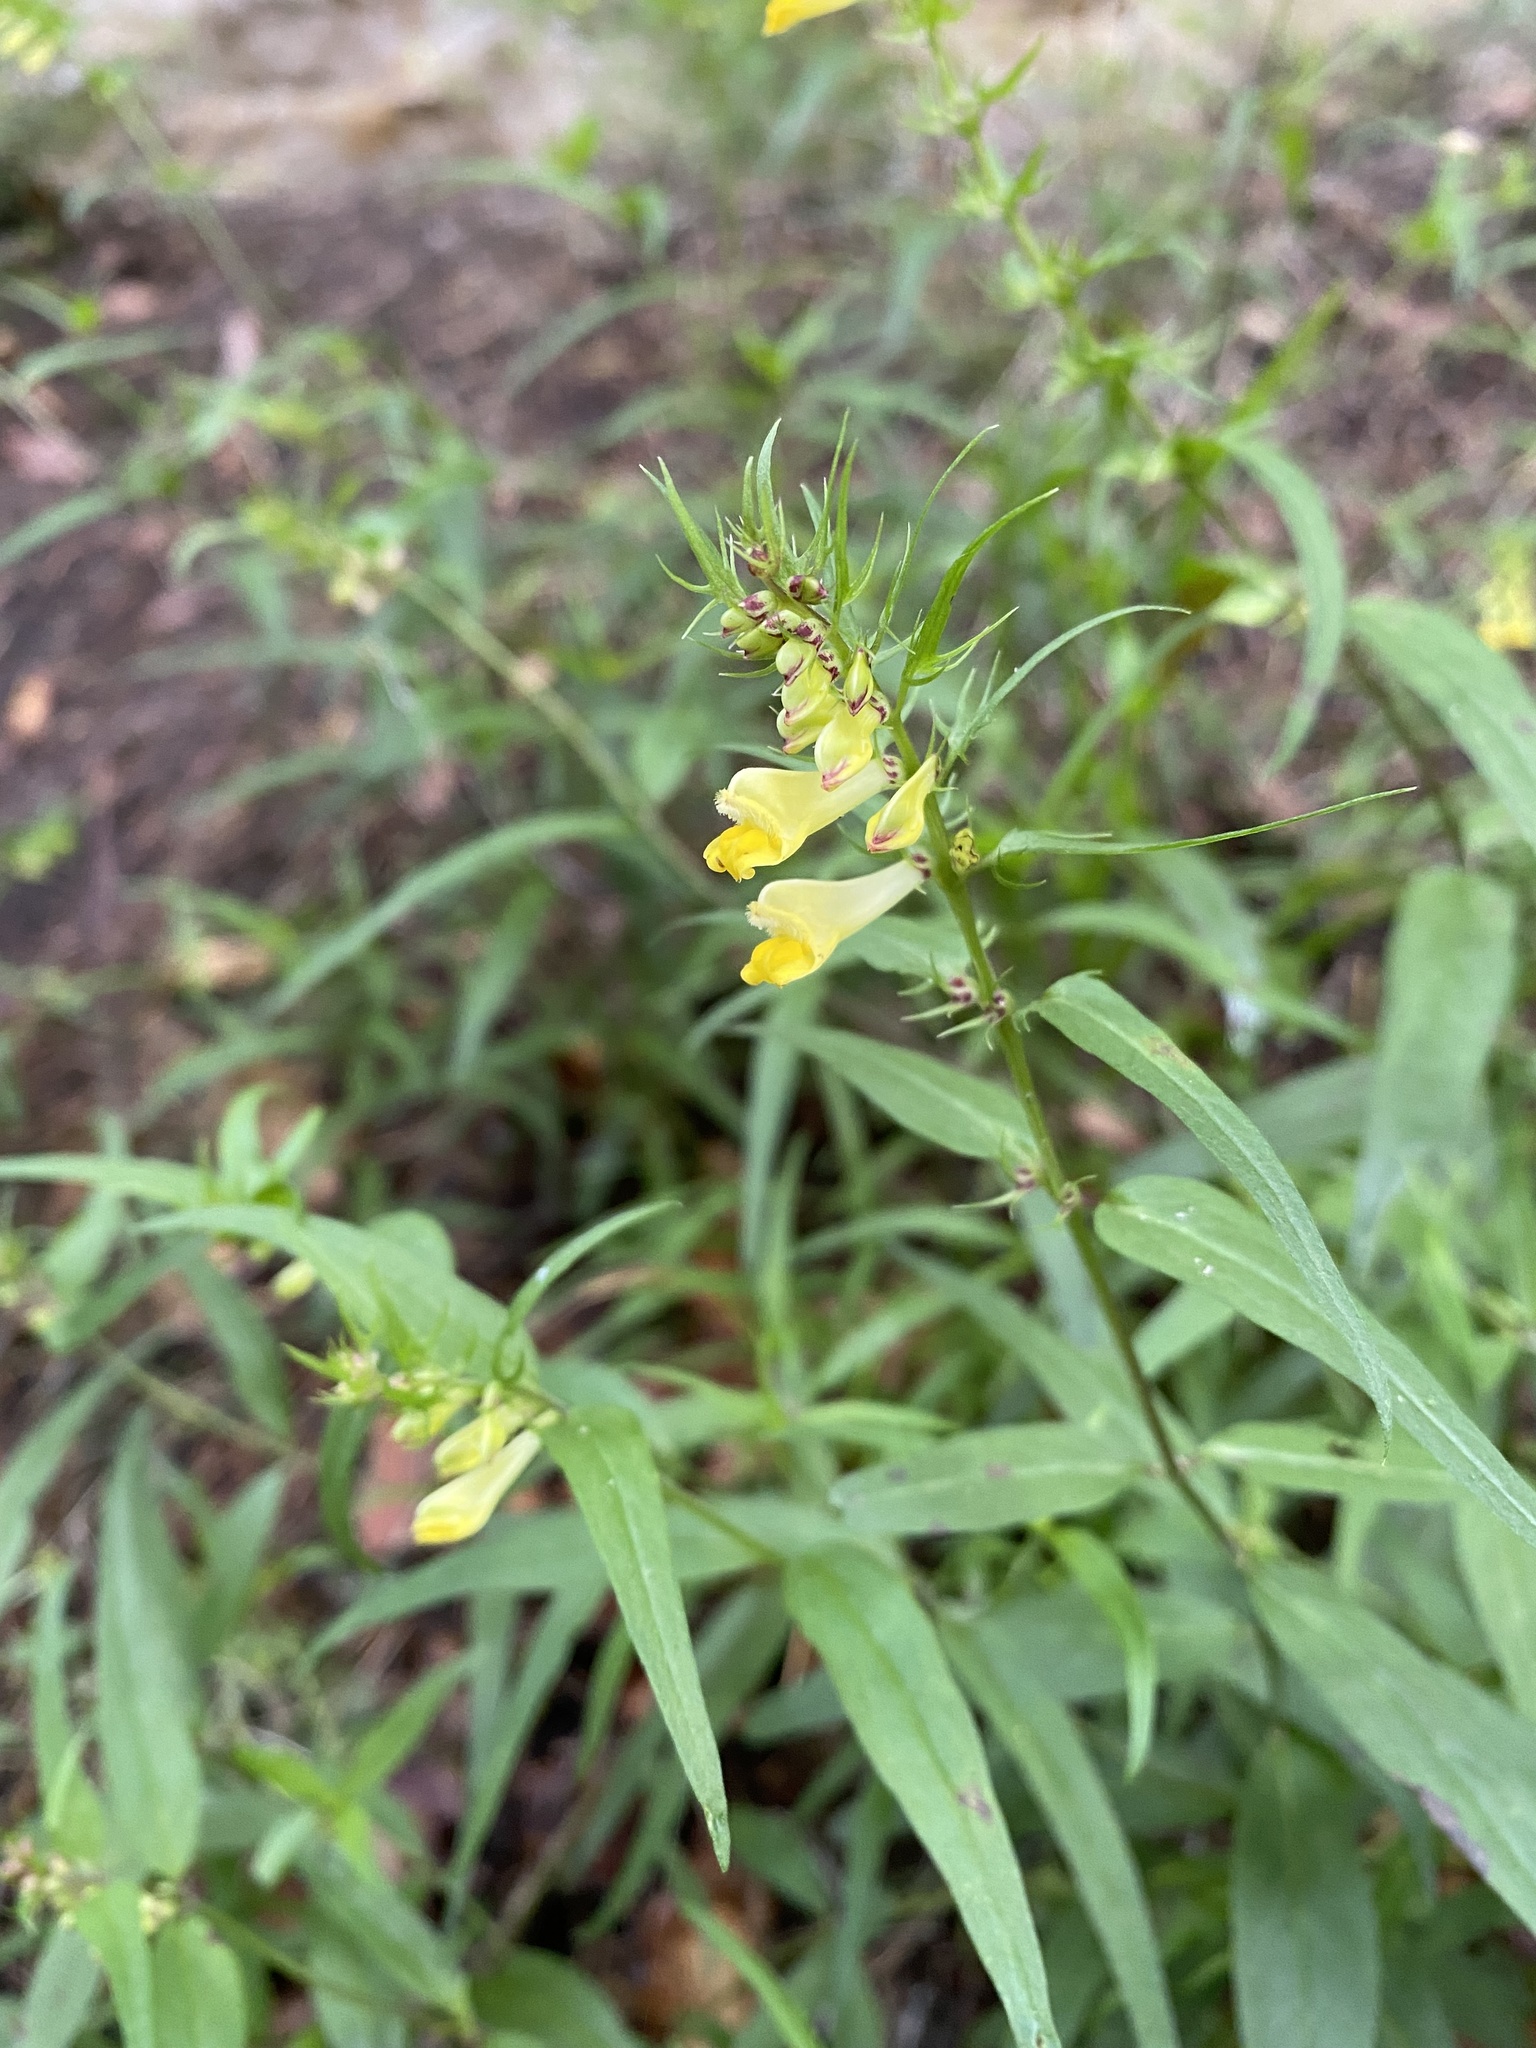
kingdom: Plantae
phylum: Tracheophyta
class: Magnoliopsida
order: Lamiales
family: Orobanchaceae
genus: Melampyrum
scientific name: Melampyrum pratense
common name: Common cow-wheat
